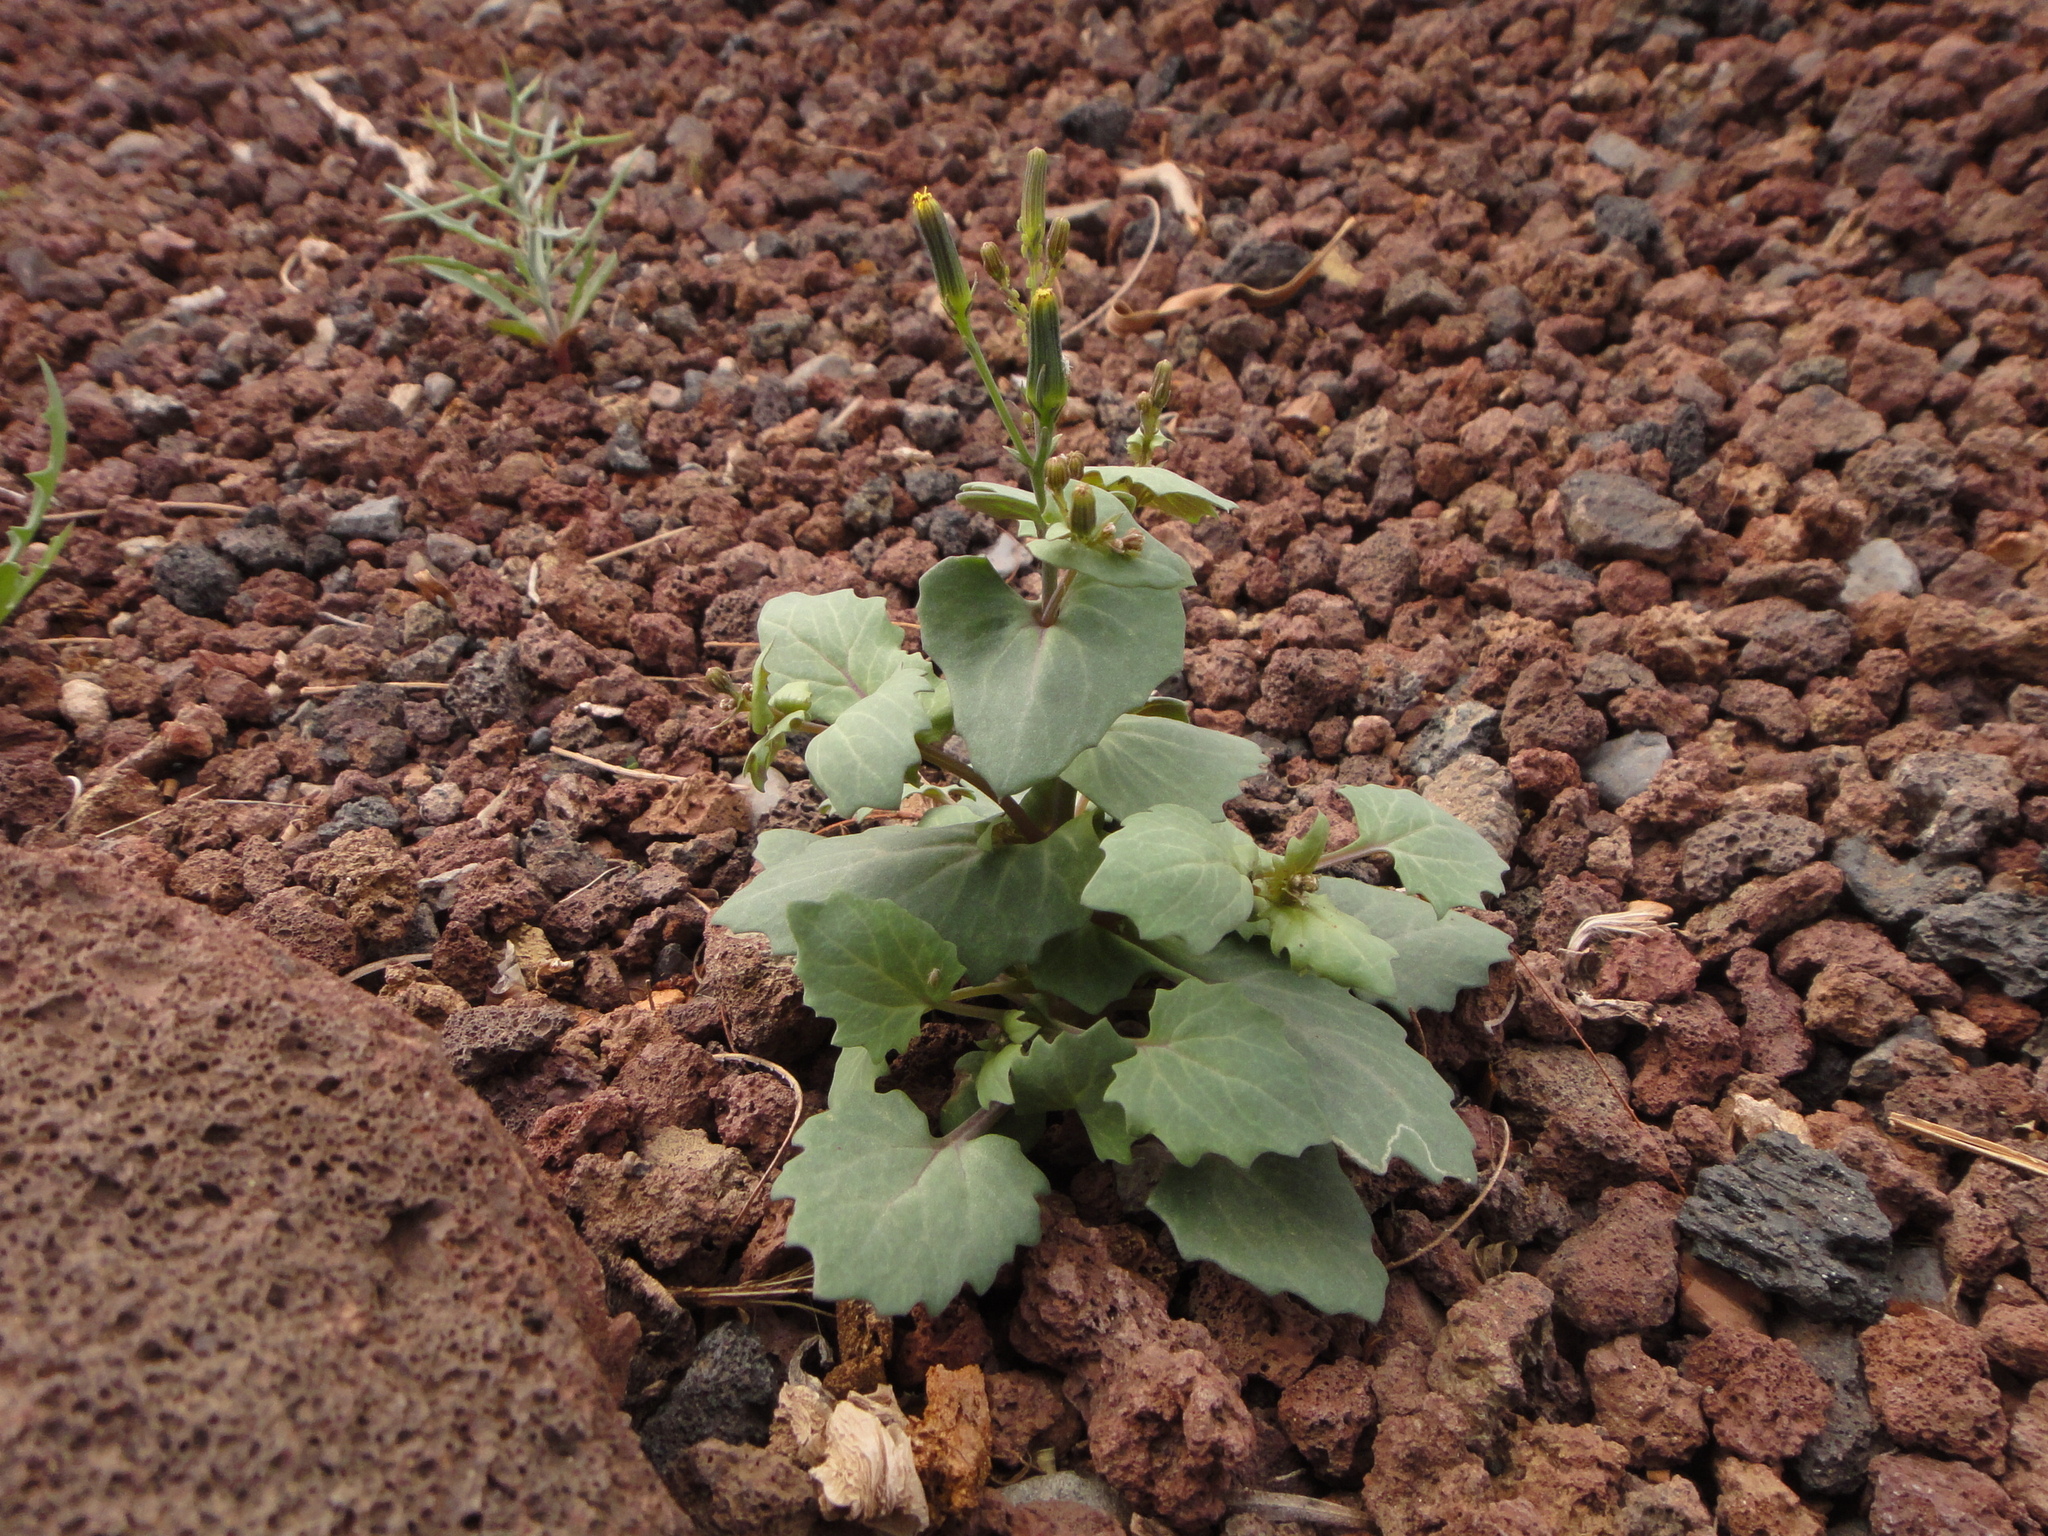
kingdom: Plantae
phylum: Tracheophyta
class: Magnoliopsida
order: Asterales
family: Asteraceae
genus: Senecio
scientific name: Senecio flavus
